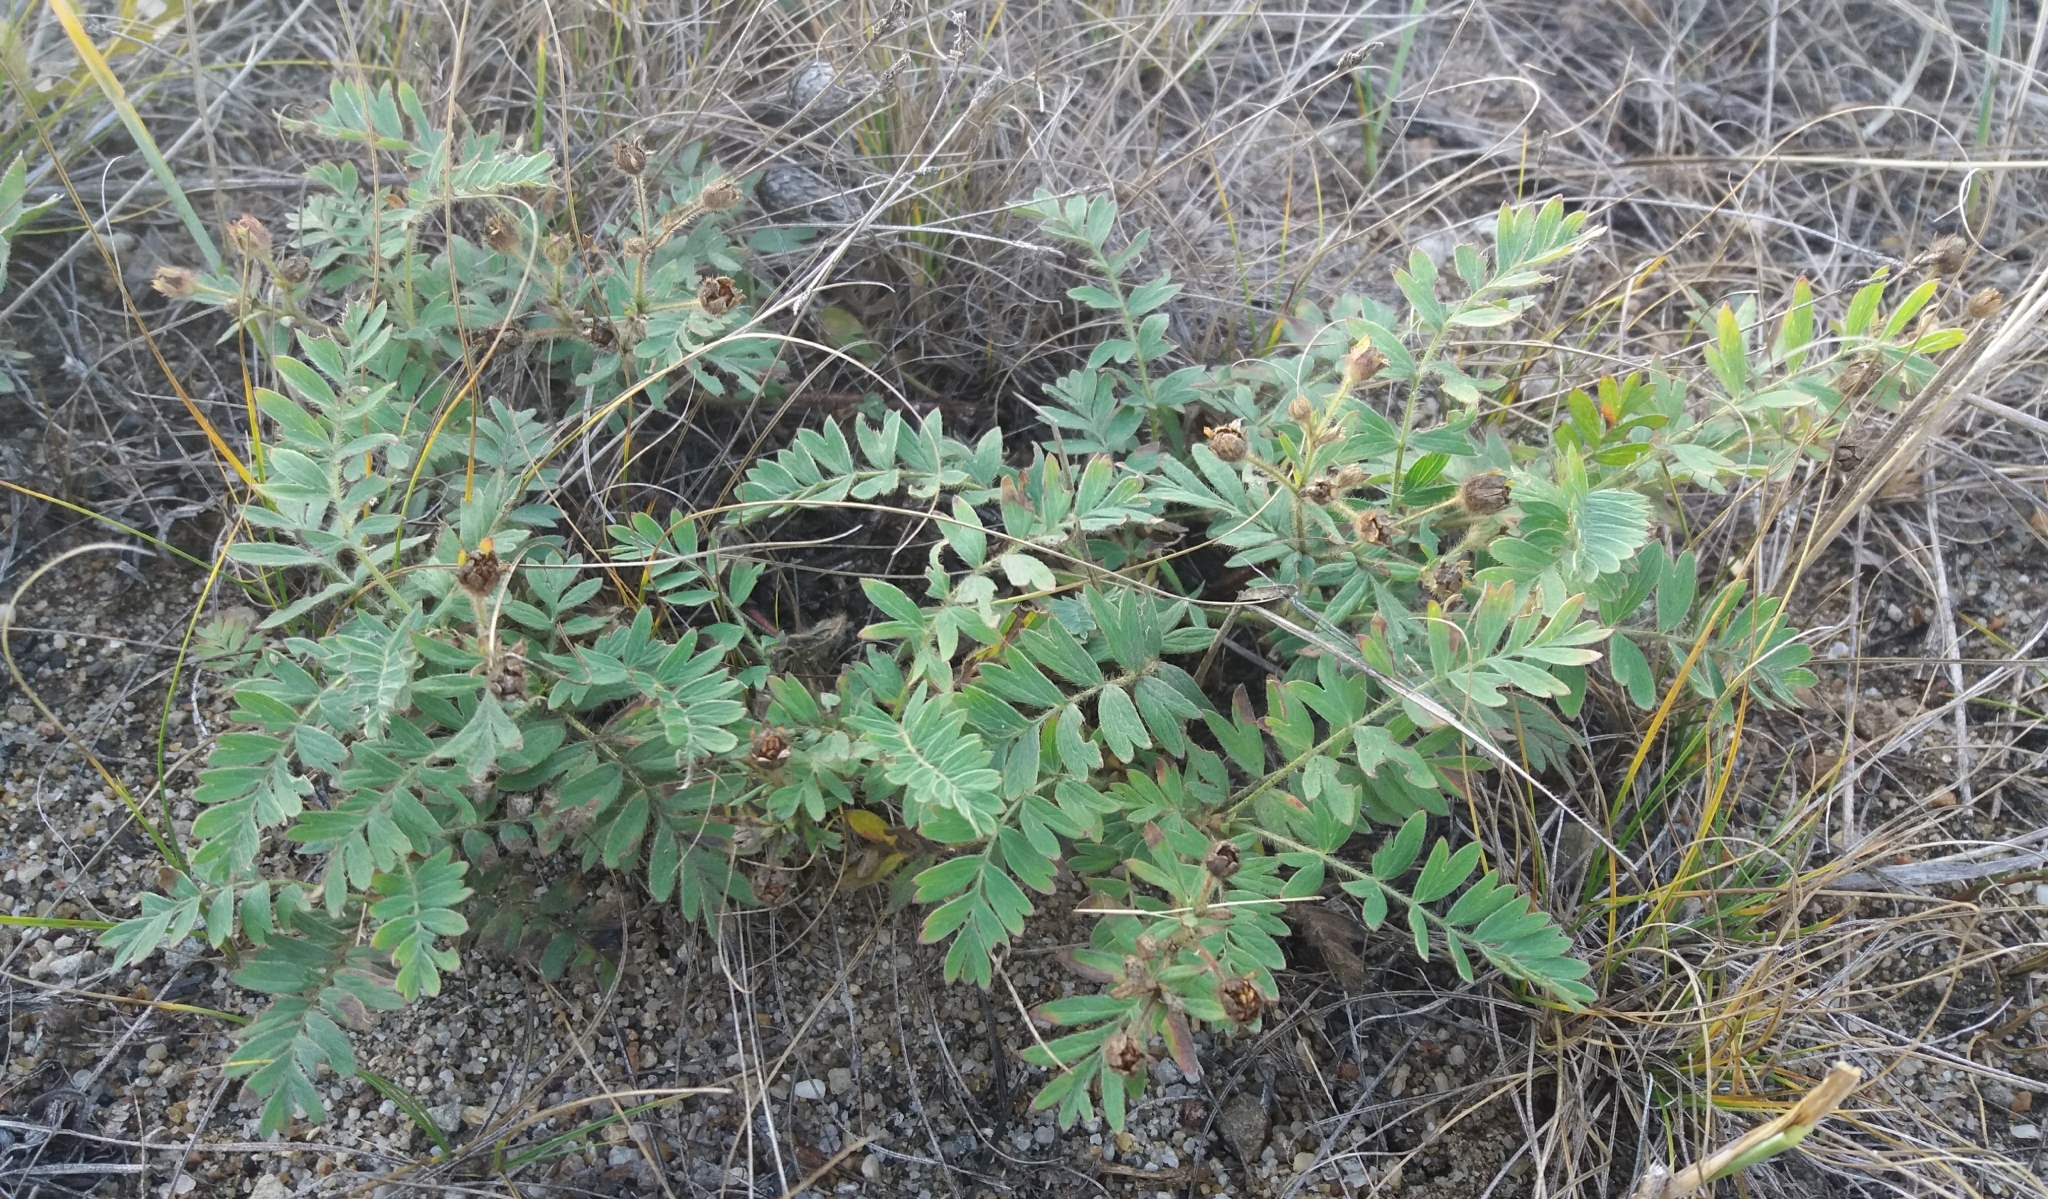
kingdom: Plantae
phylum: Tracheophyta
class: Magnoliopsida
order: Rosales
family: Rosaceae
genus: Sibbaldianthe
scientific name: Sibbaldianthe bifurca
